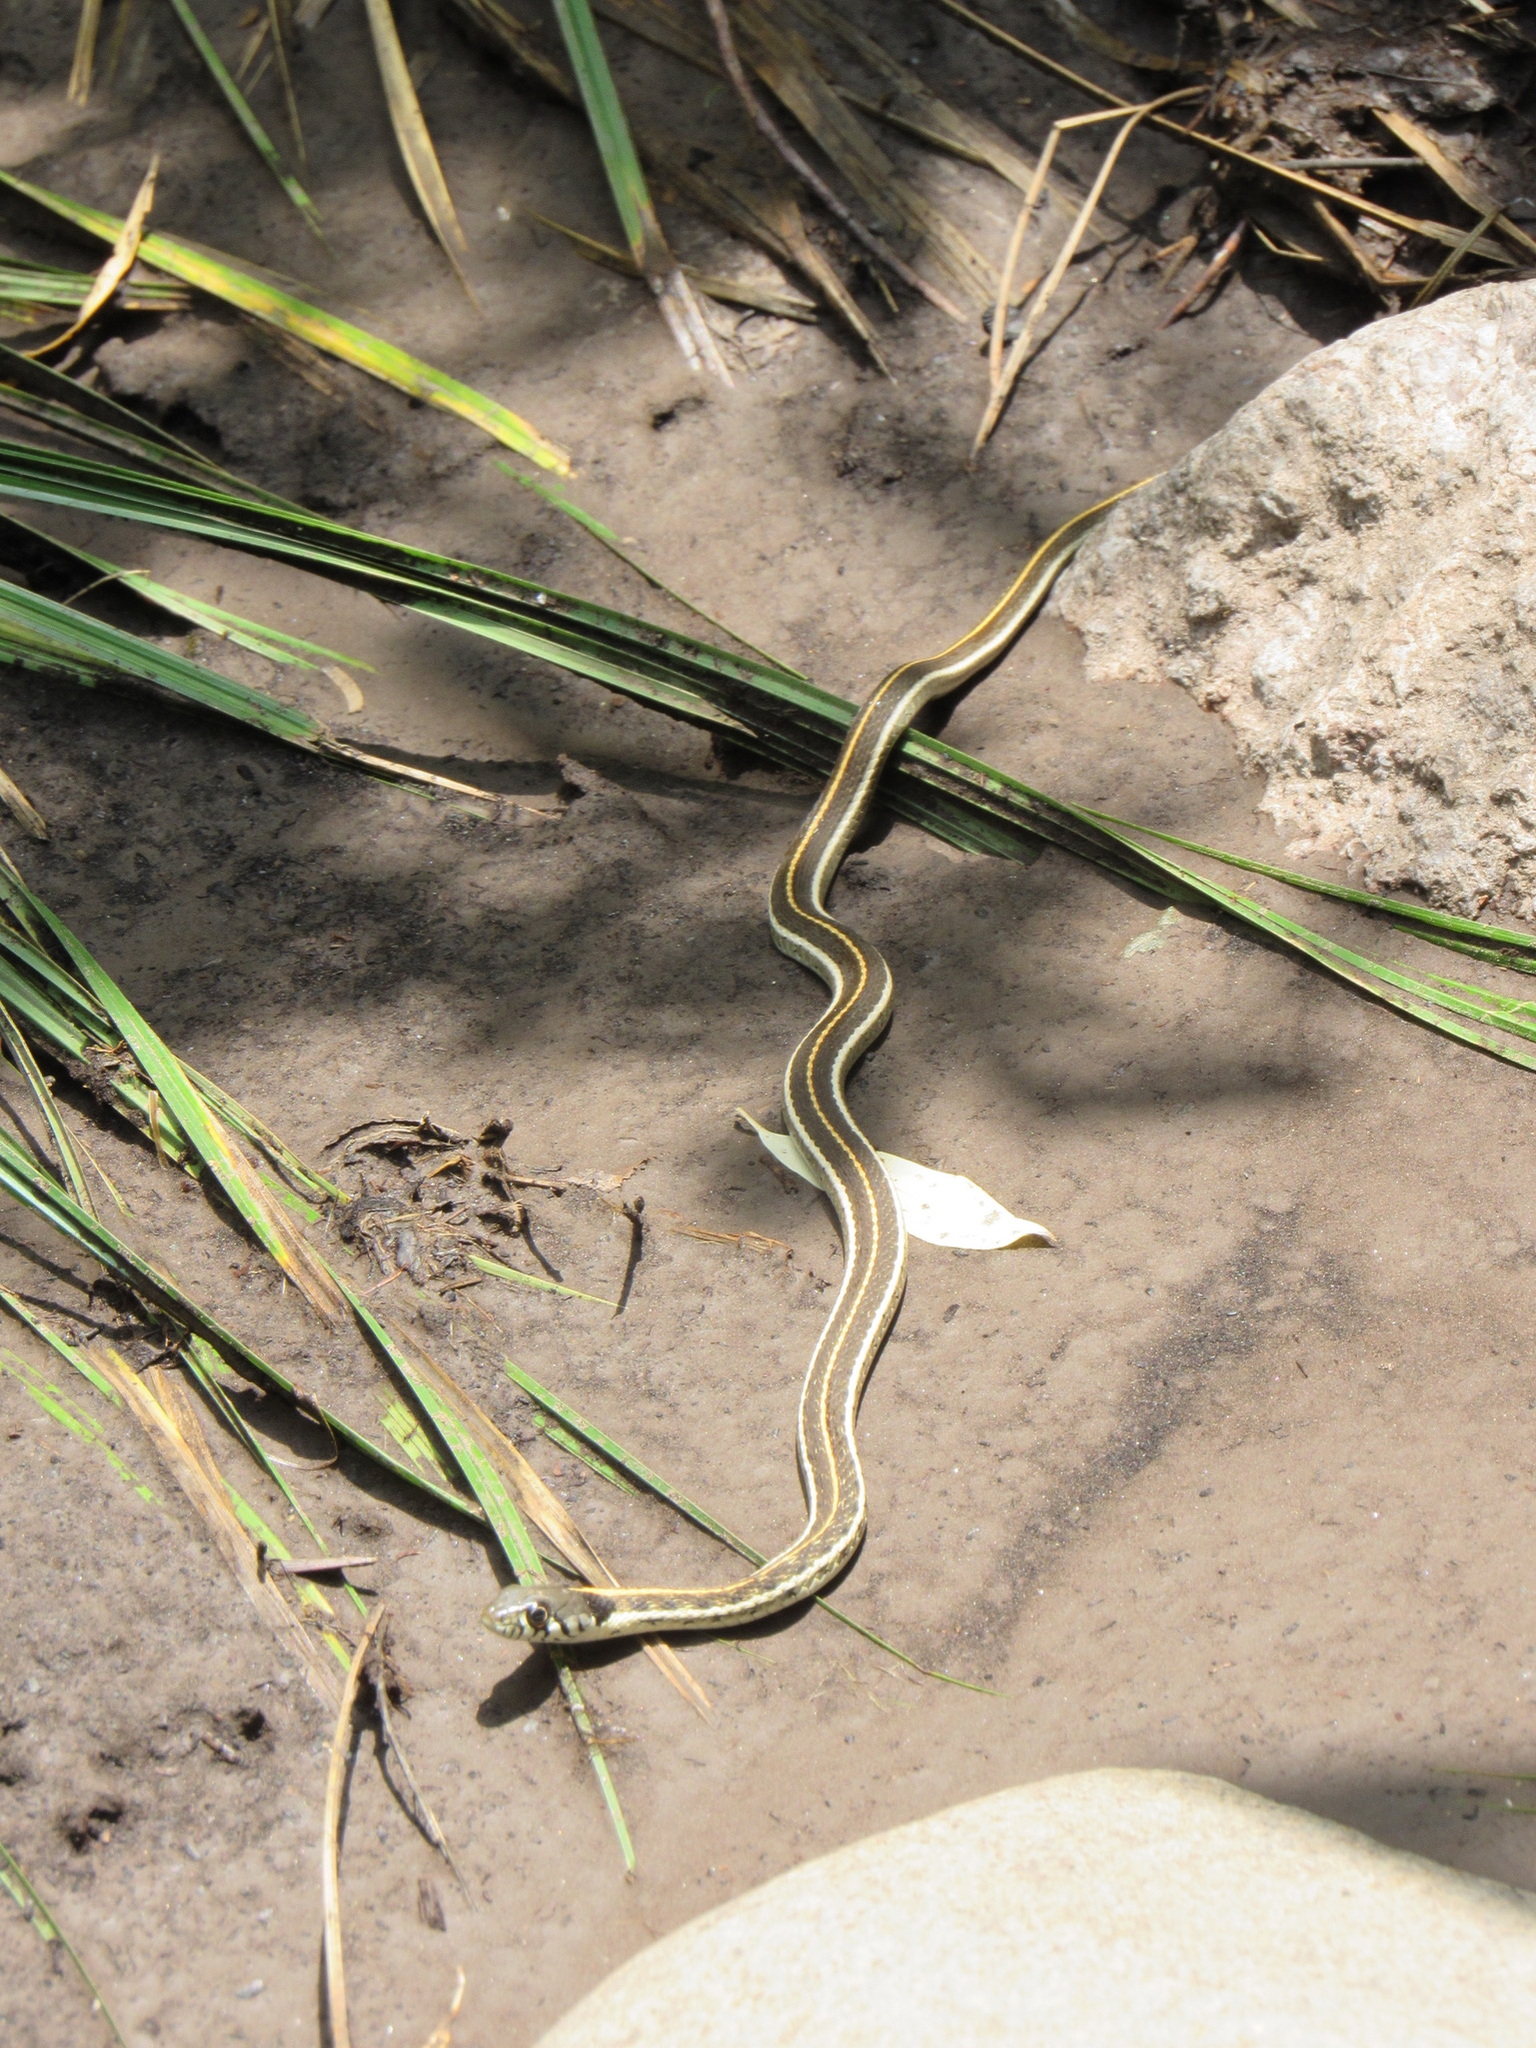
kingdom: Animalia
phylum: Chordata
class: Squamata
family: Colubridae
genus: Thamnophis
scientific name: Thamnophis cyrtopsis
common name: Black-necked gartersnake
